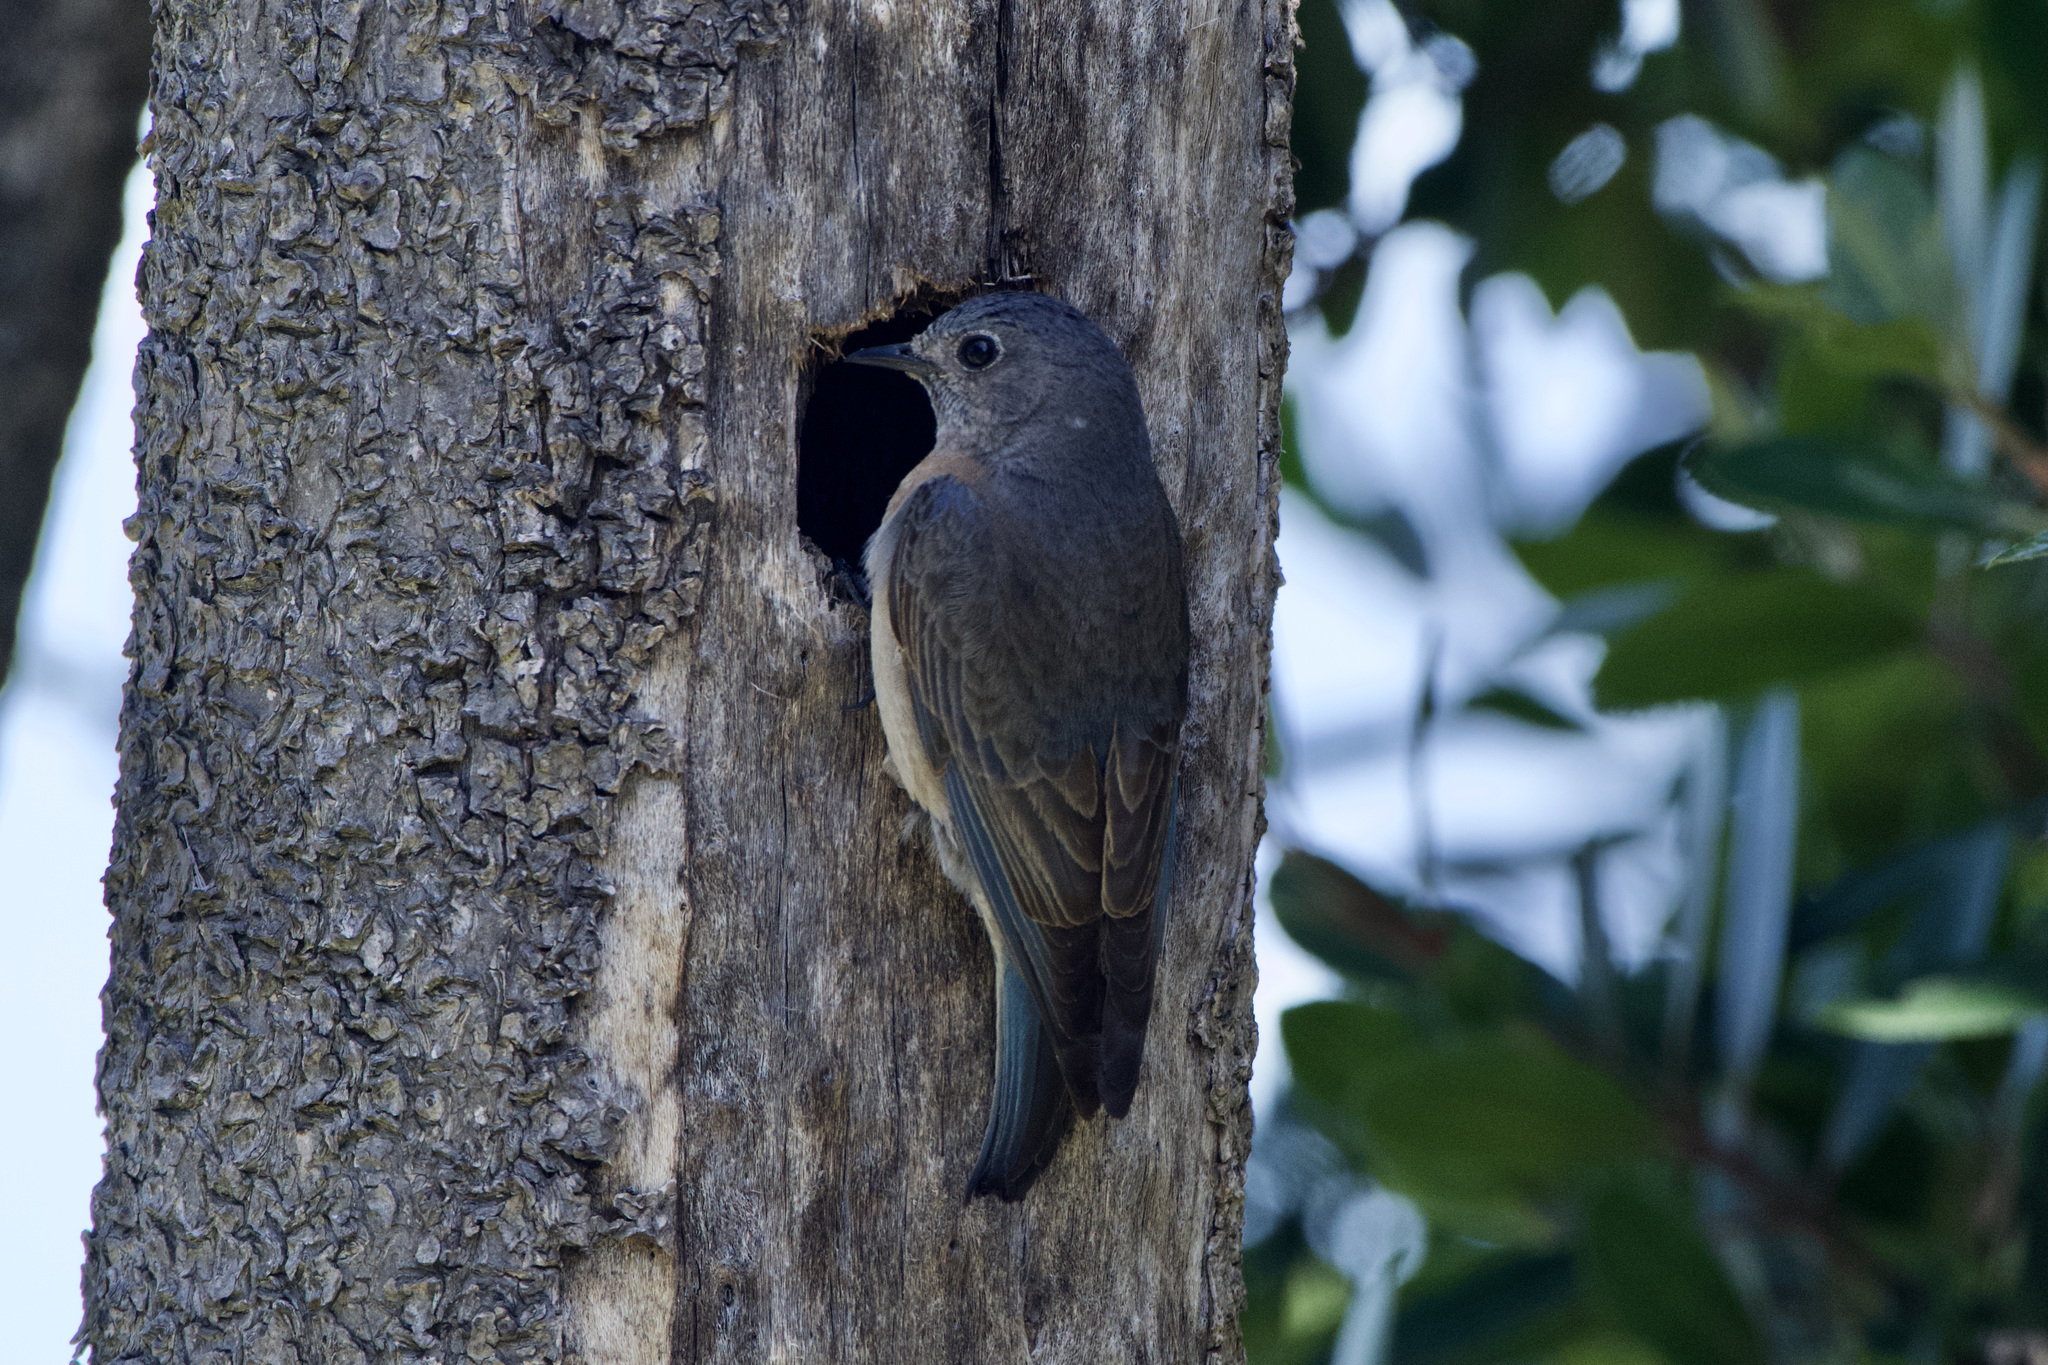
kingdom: Animalia
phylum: Chordata
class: Aves
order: Passeriformes
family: Turdidae
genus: Sialia
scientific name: Sialia mexicana
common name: Western bluebird
